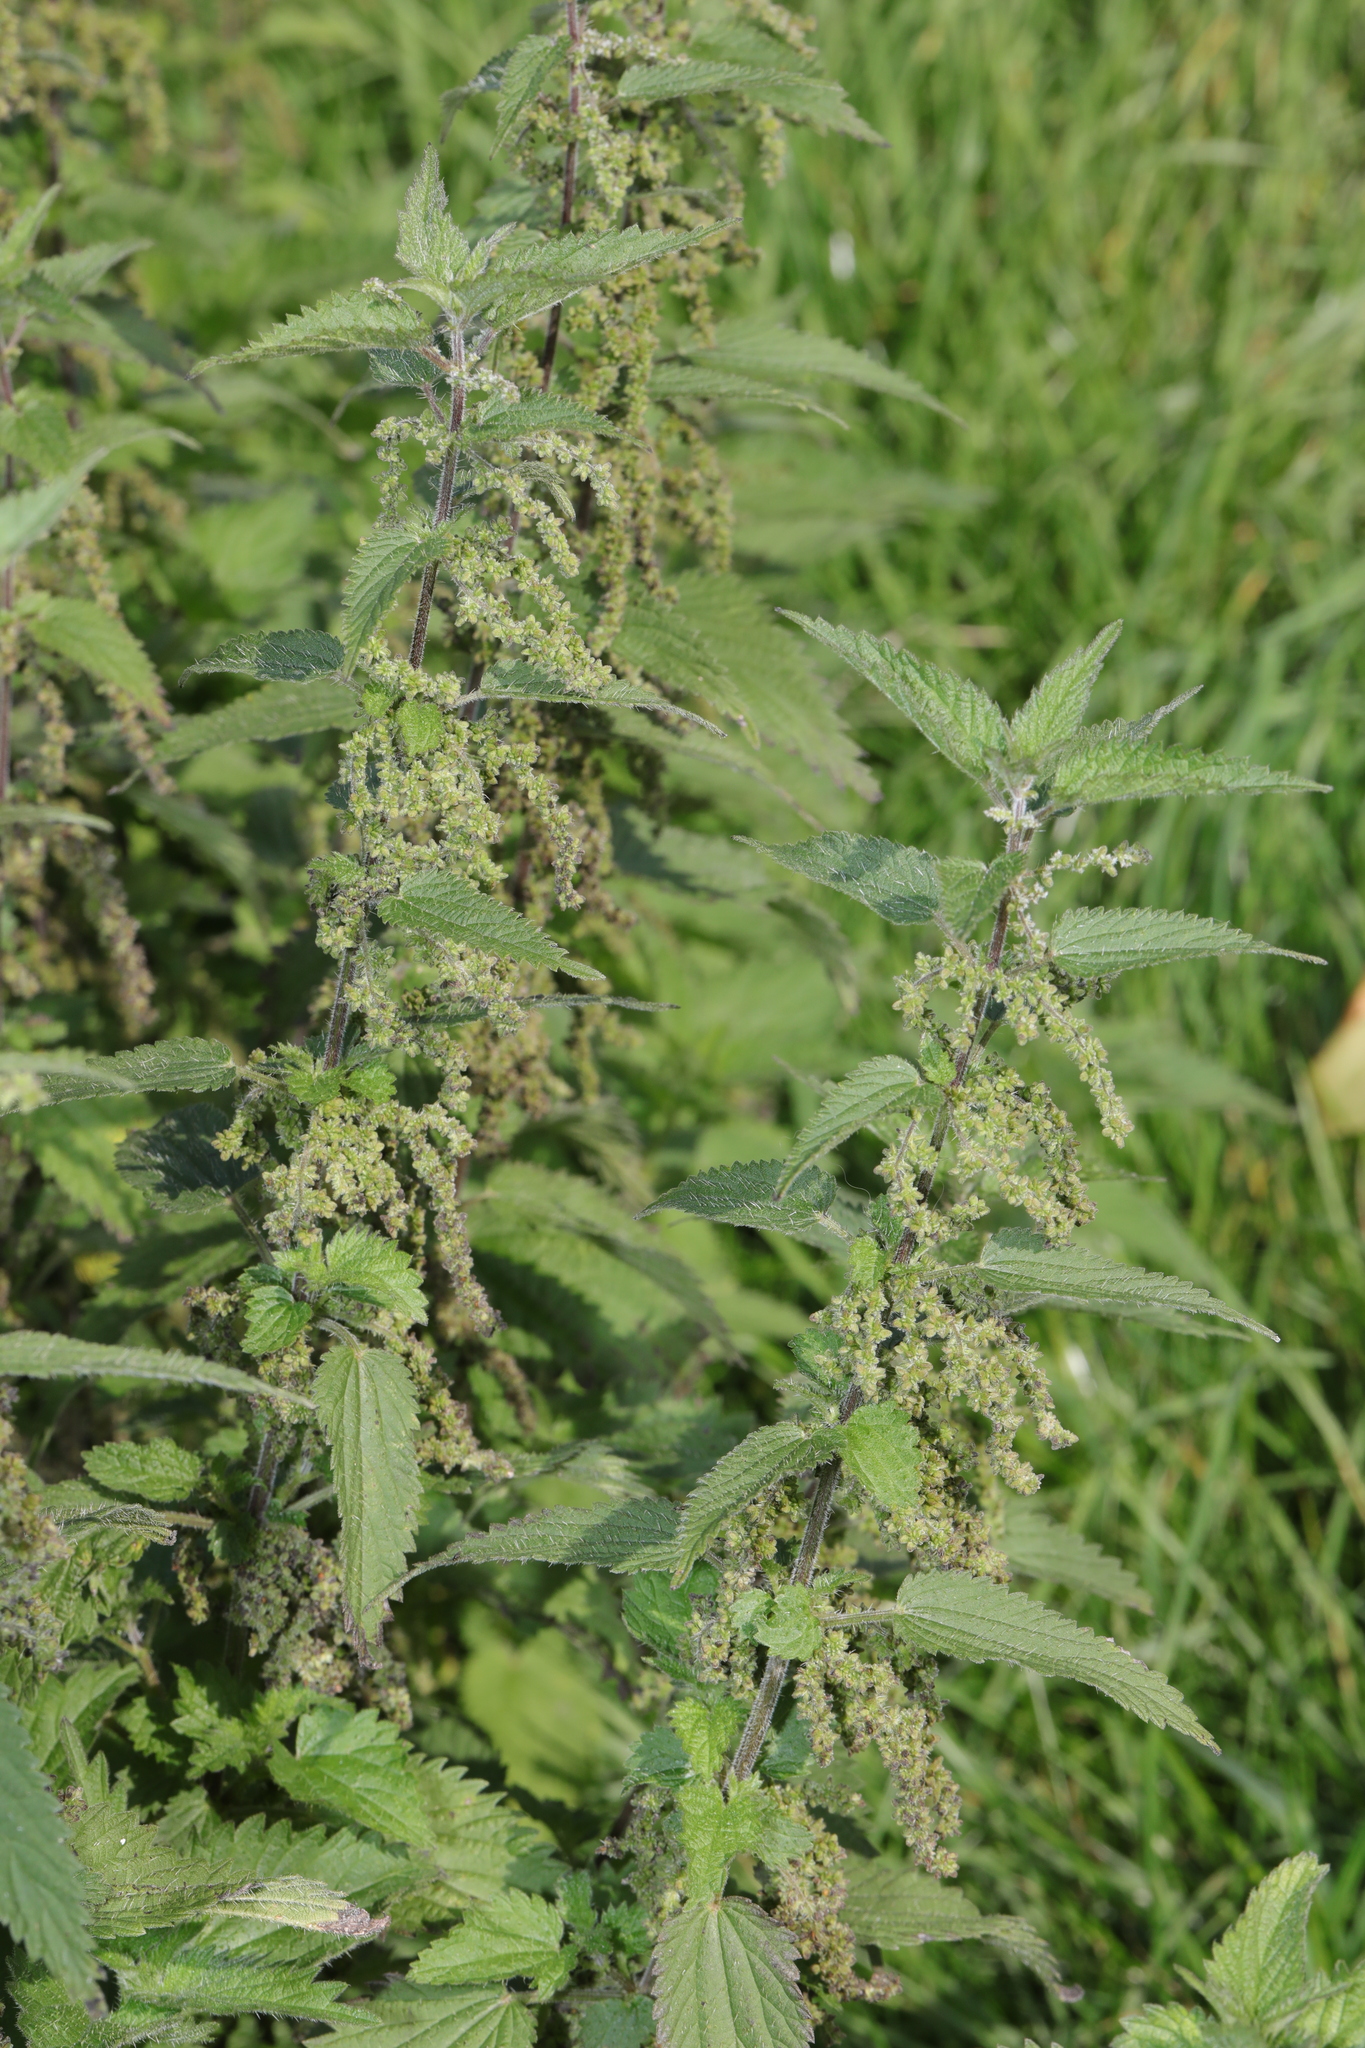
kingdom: Plantae
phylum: Tracheophyta
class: Magnoliopsida
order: Rosales
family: Urticaceae
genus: Urtica
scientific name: Urtica dioica
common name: Common nettle
